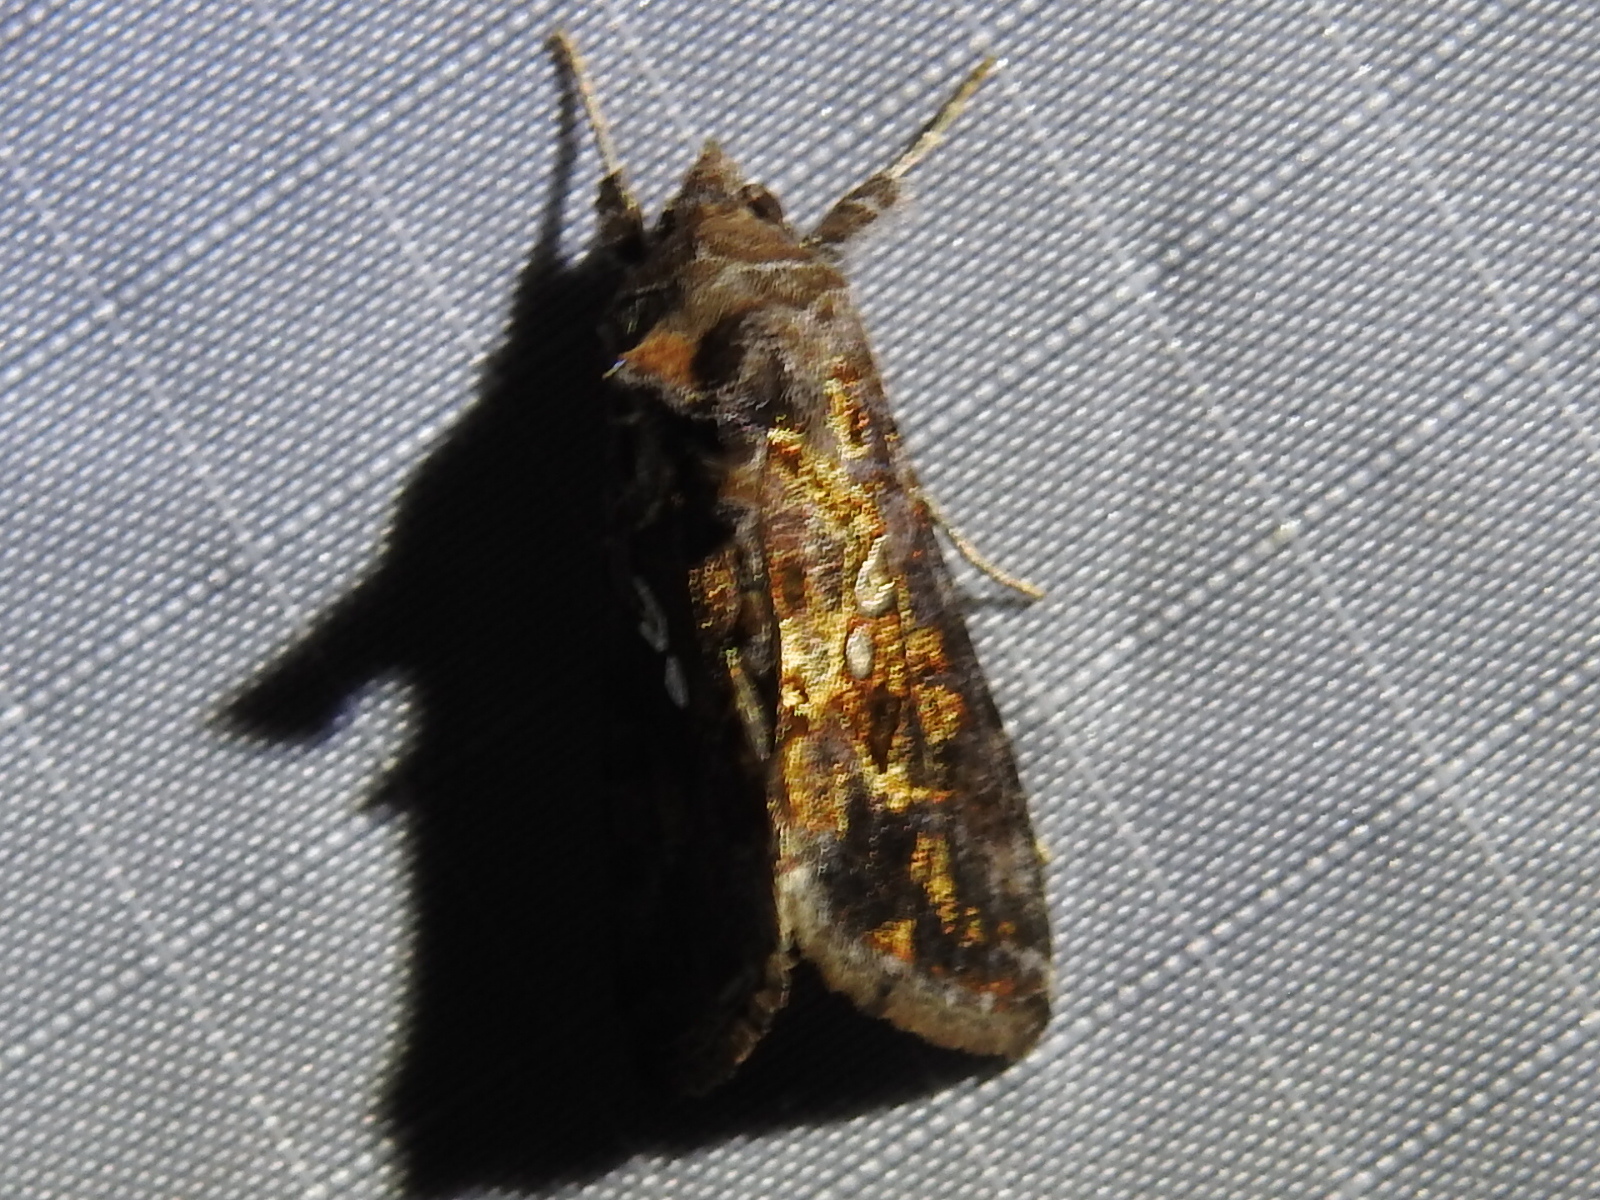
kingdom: Animalia
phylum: Arthropoda
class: Insecta
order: Lepidoptera
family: Noctuidae
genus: Chrysodeixis
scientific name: Chrysodeixis includens
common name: Cutworm moth
